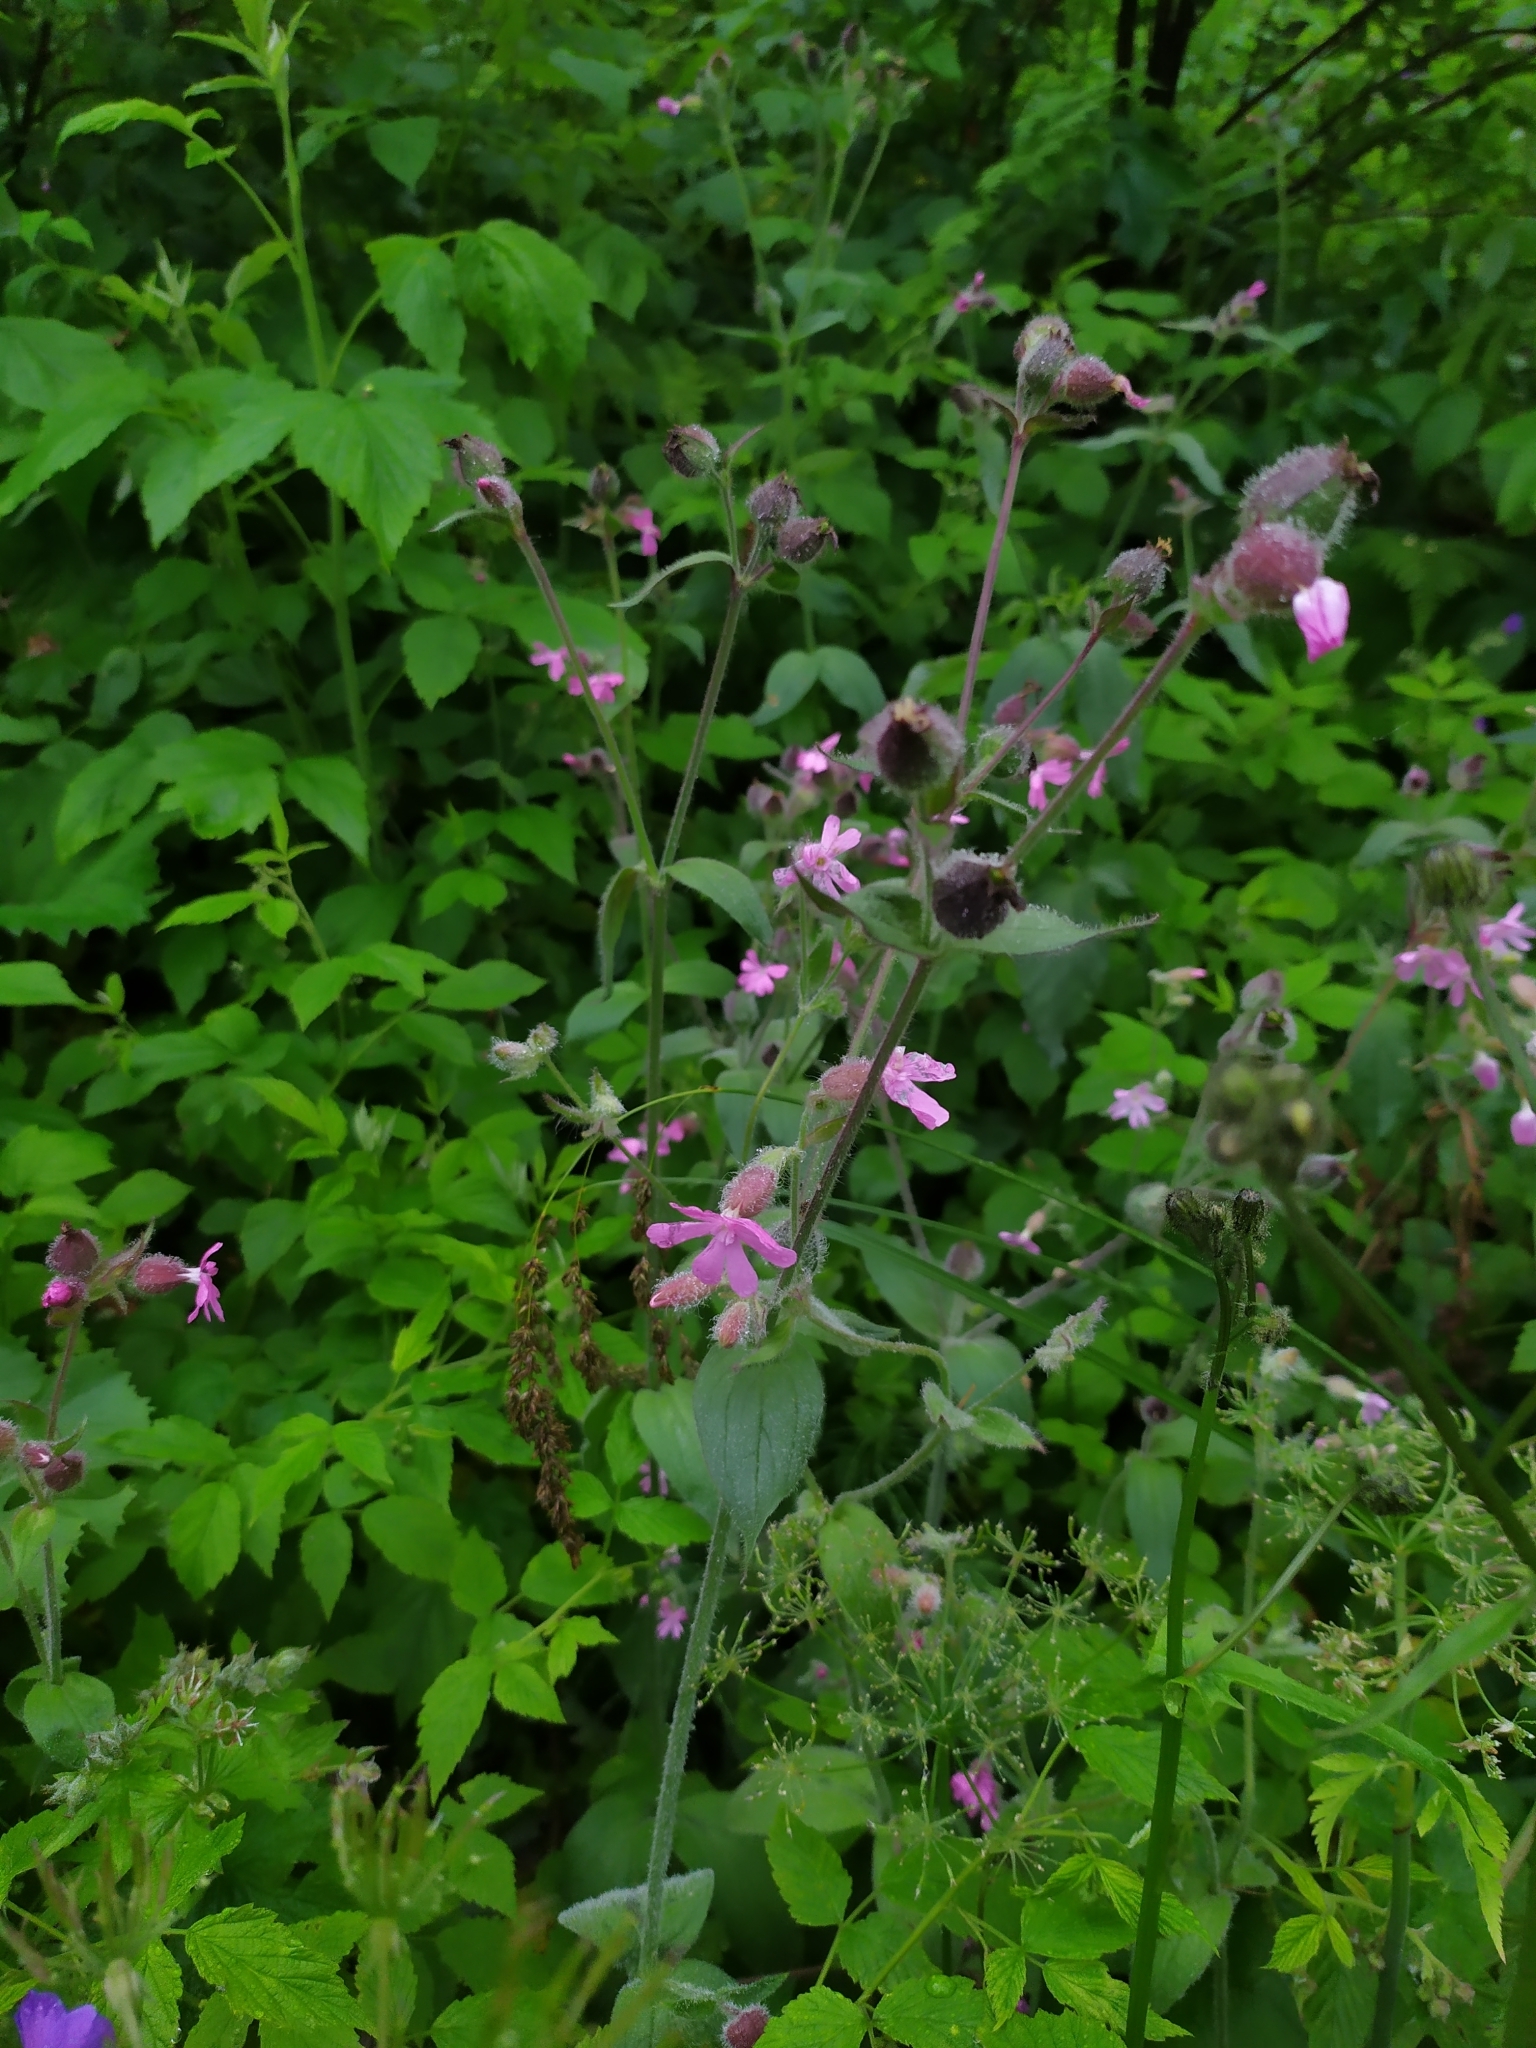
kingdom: Plantae
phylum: Tracheophyta
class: Magnoliopsida
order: Caryophyllales
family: Caryophyllaceae
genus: Silene
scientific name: Silene dioica
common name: Red campion
